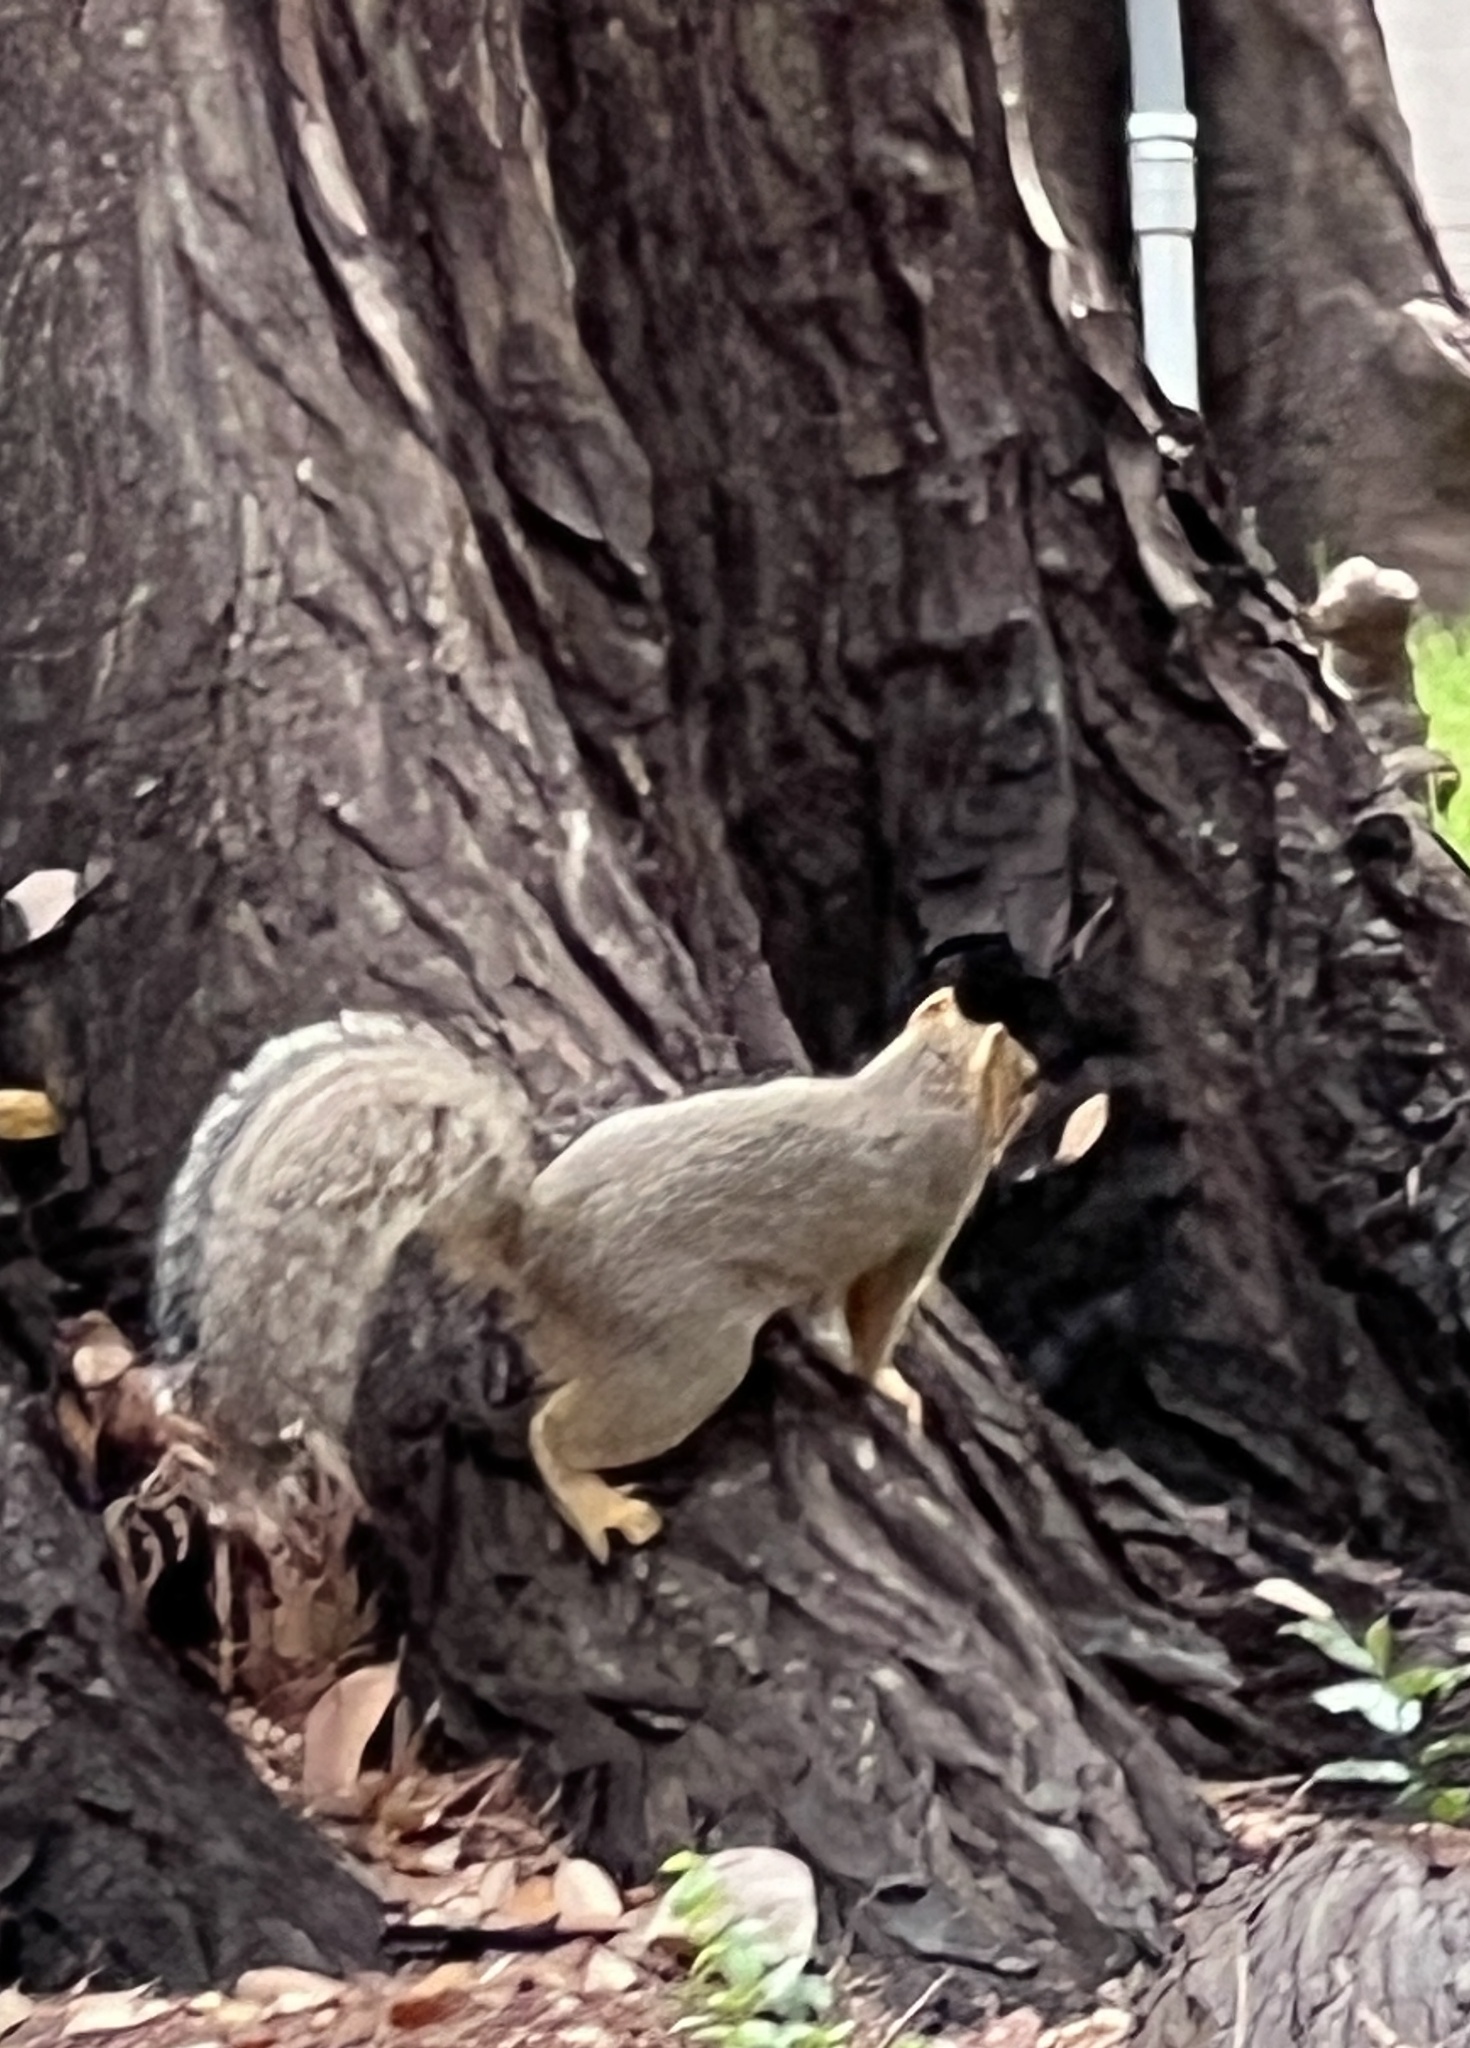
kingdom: Animalia
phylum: Chordata
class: Mammalia
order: Rodentia
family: Sciuridae
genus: Sciurus
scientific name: Sciurus niger
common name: Fox squirrel
